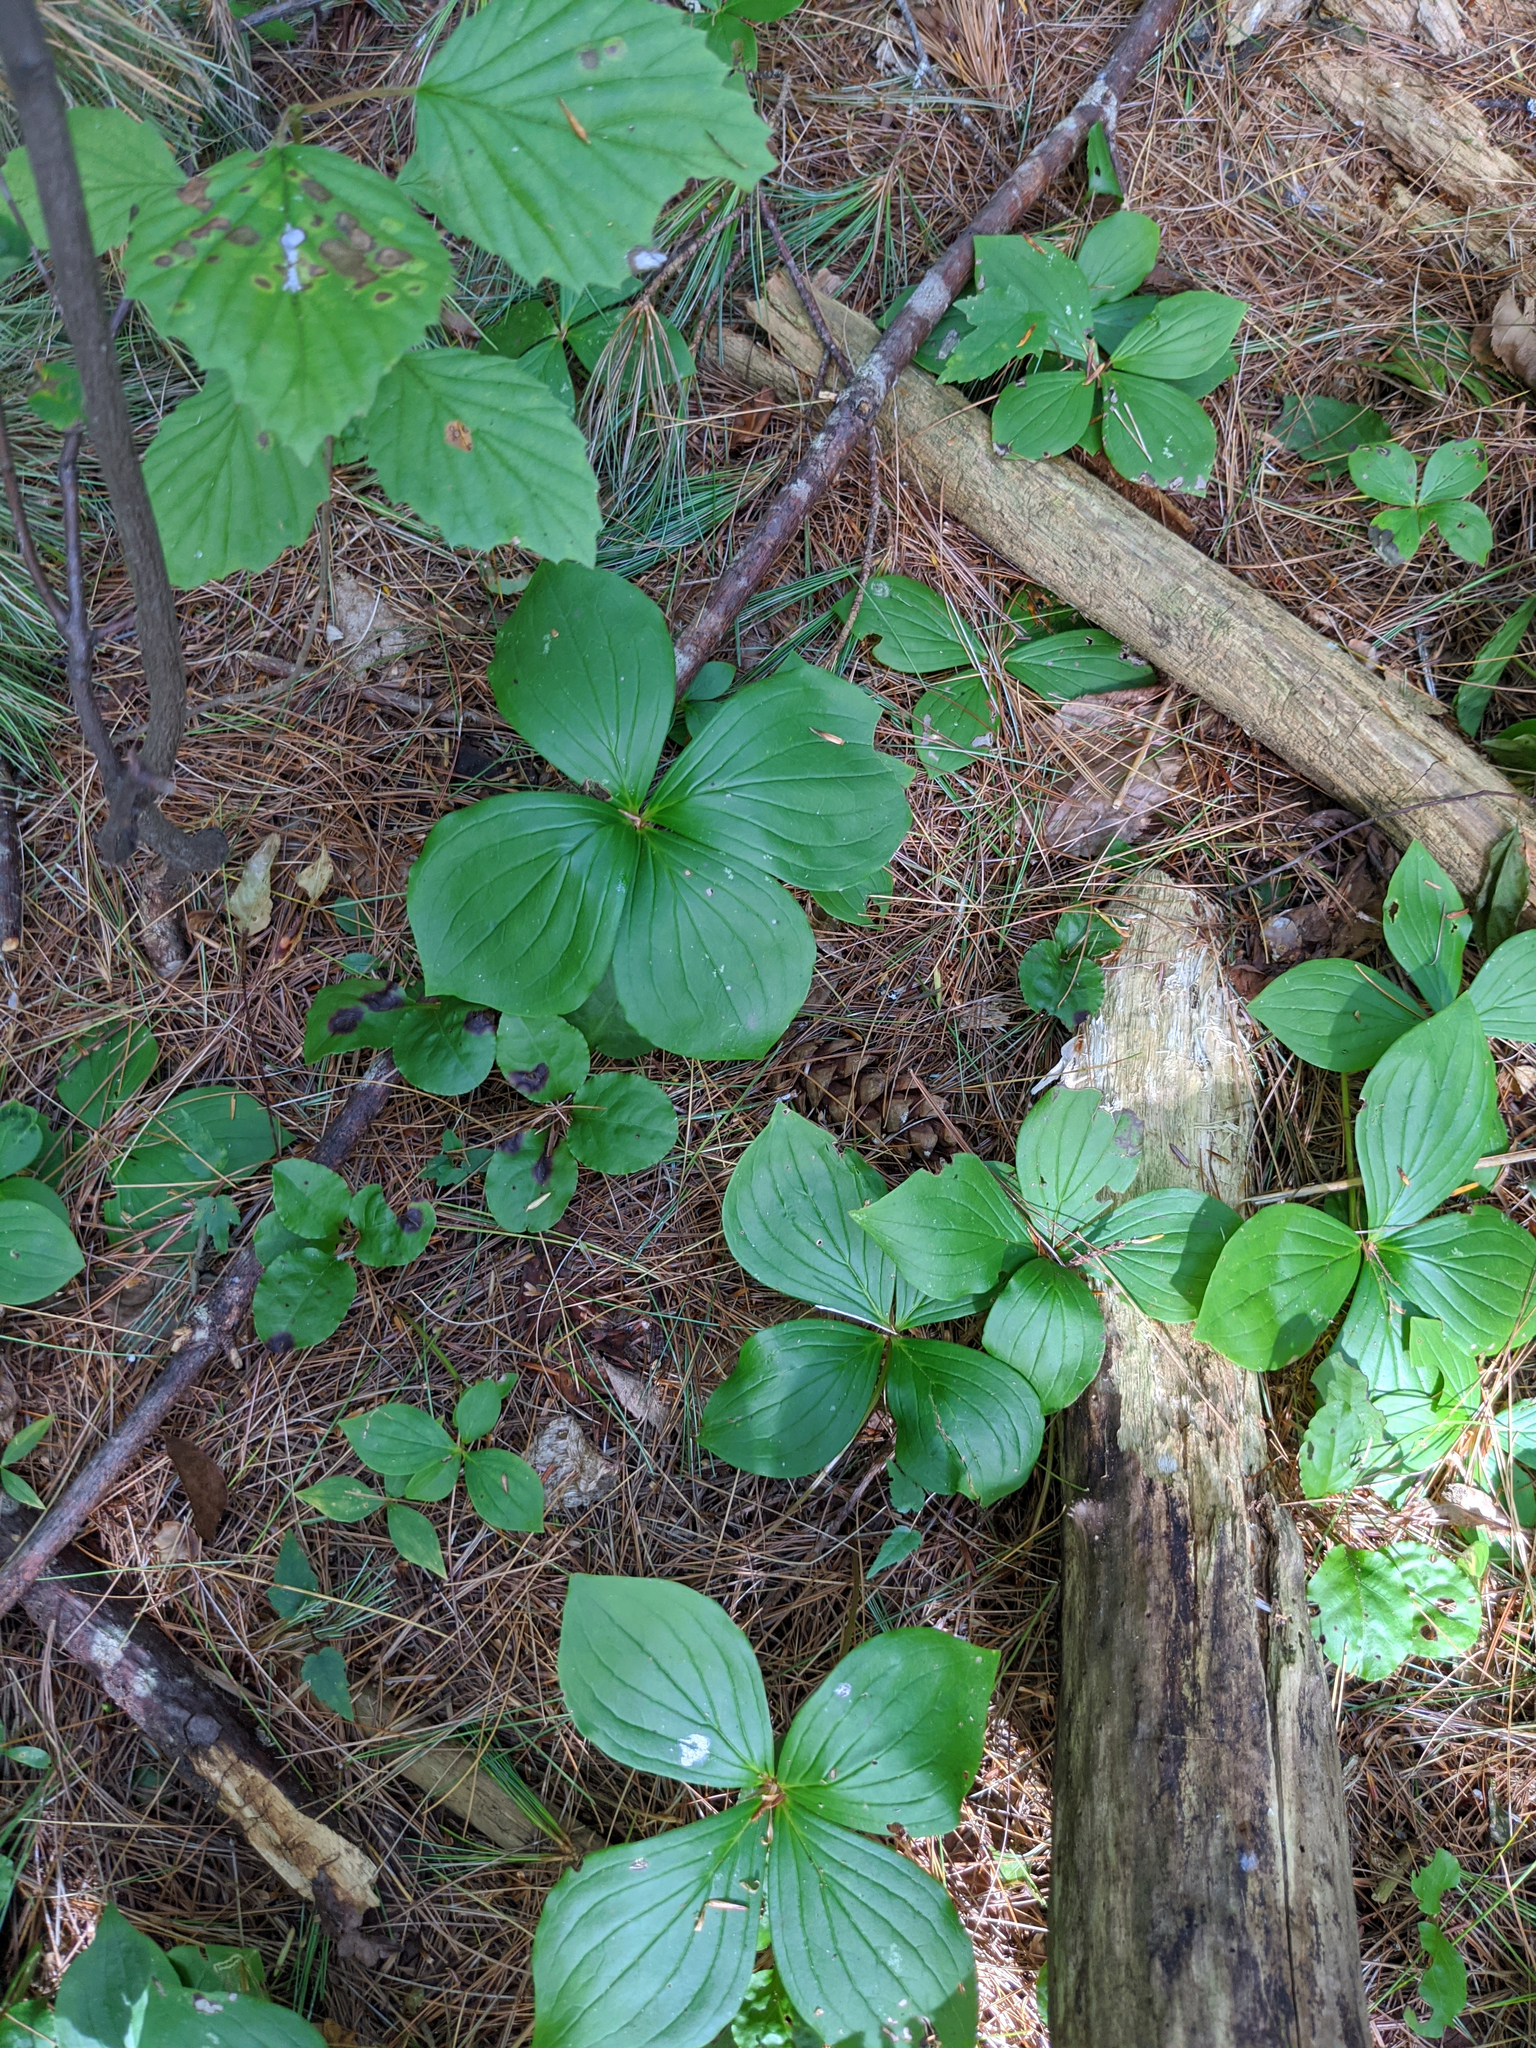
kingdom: Plantae
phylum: Tracheophyta
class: Magnoliopsida
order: Cornales
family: Cornaceae
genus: Cornus
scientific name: Cornus canadensis
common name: Creeping dogwood
